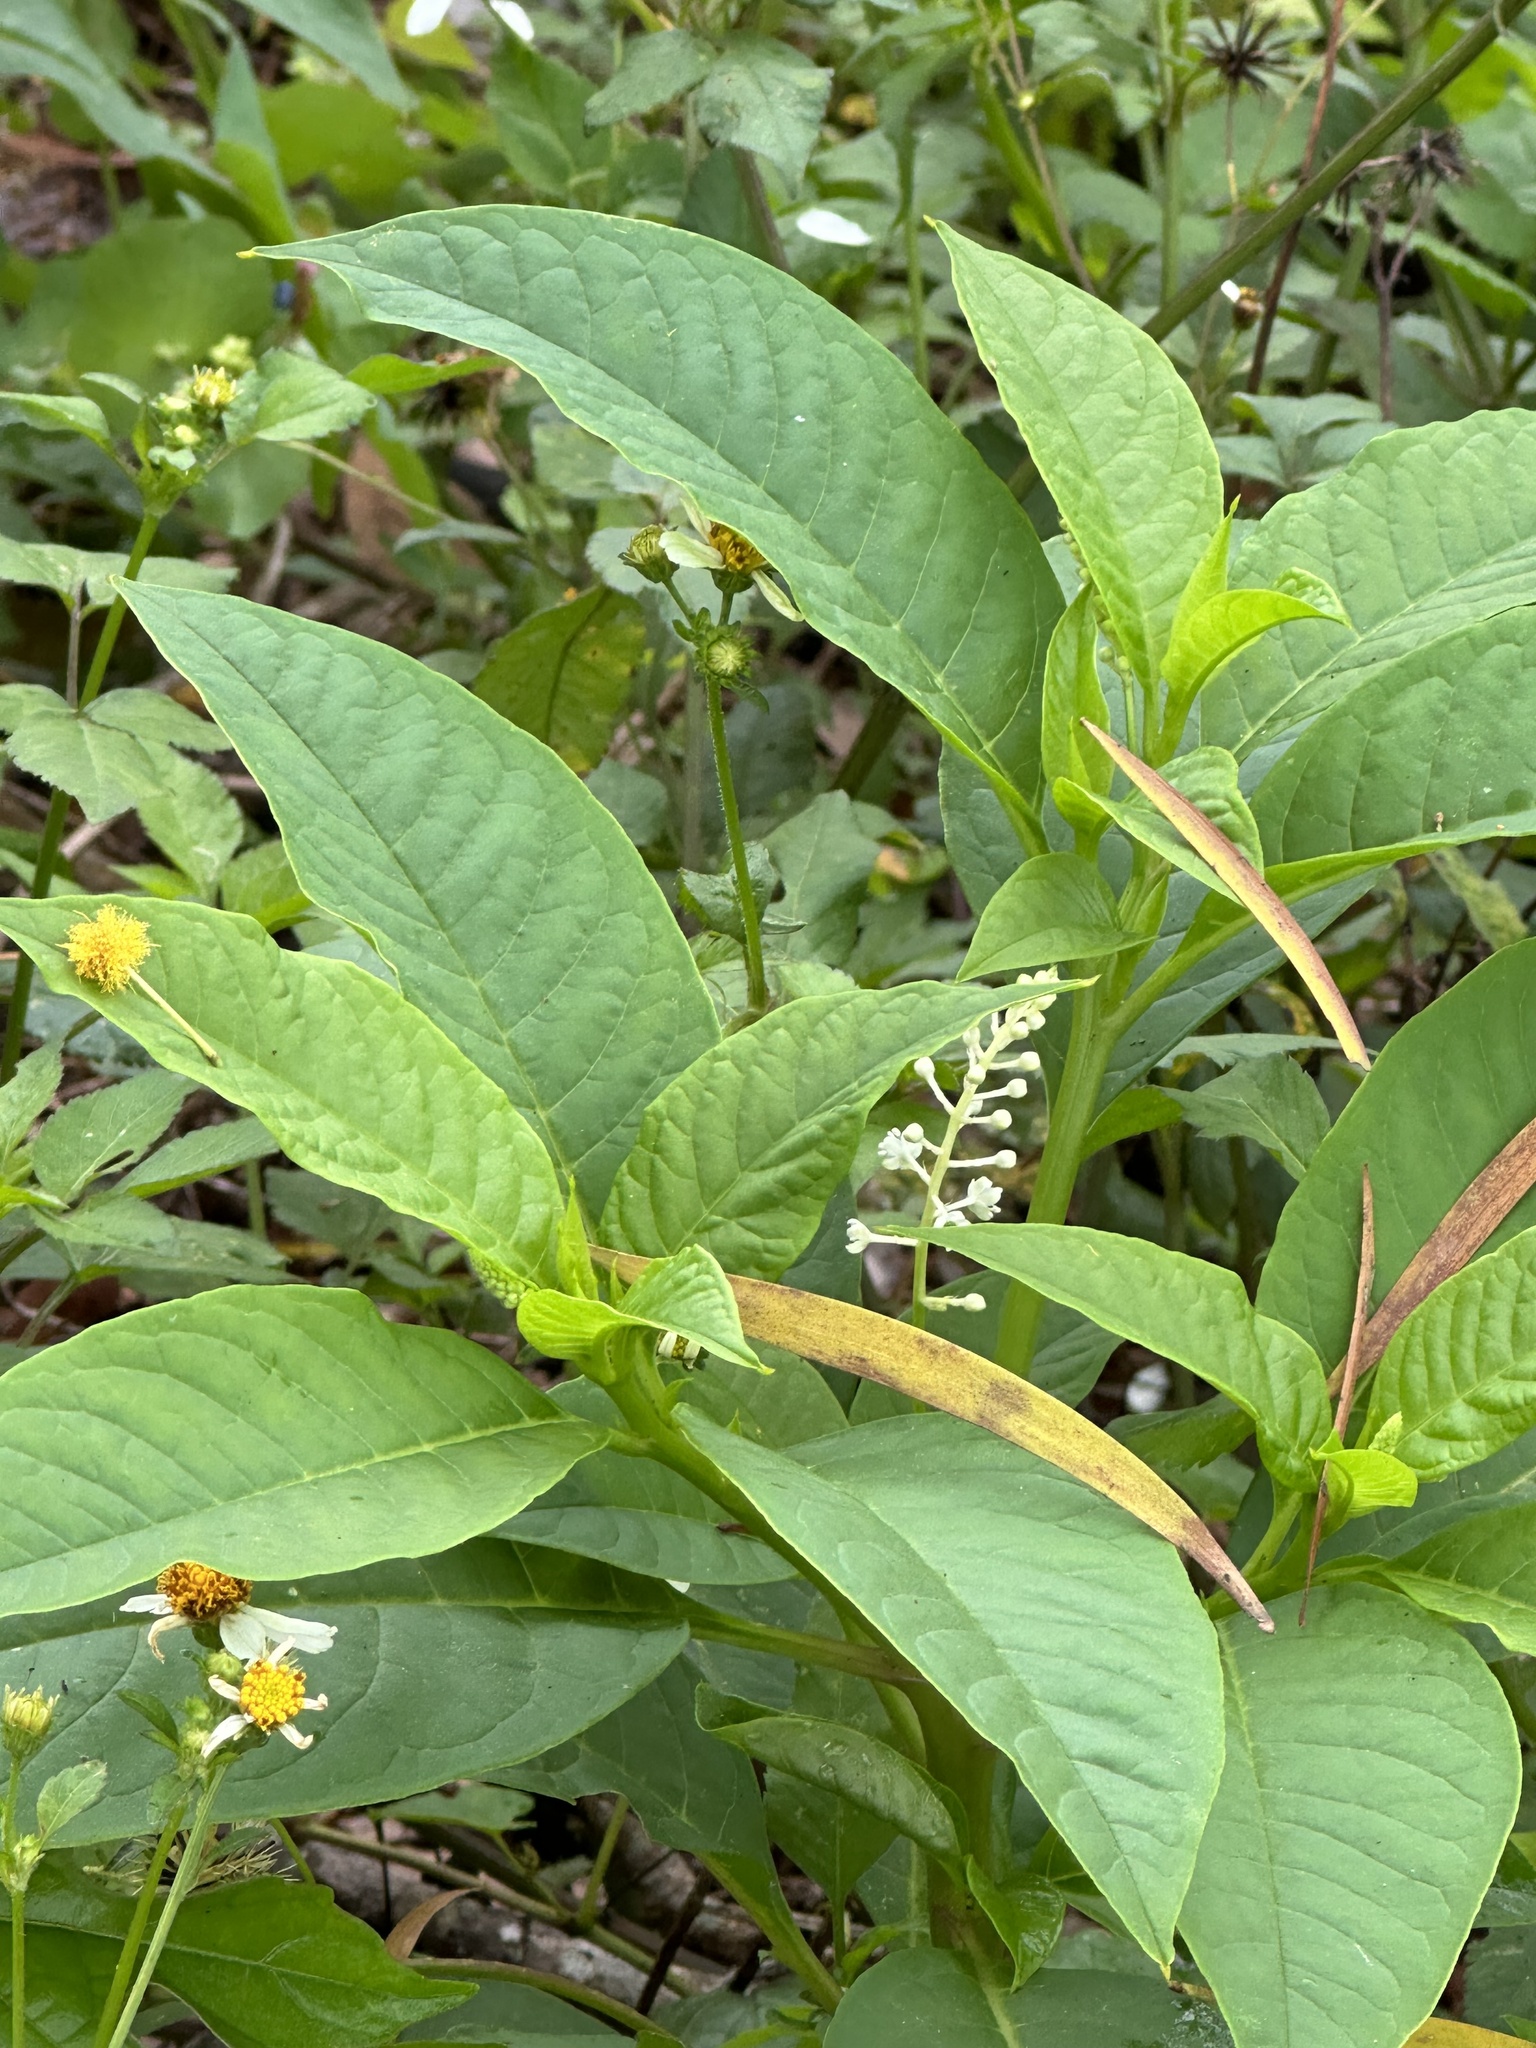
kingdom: Plantae
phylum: Tracheophyta
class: Magnoliopsida
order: Caryophyllales
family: Phytolaccaceae
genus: Phytolacca
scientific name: Phytolacca americana
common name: American pokeweed
